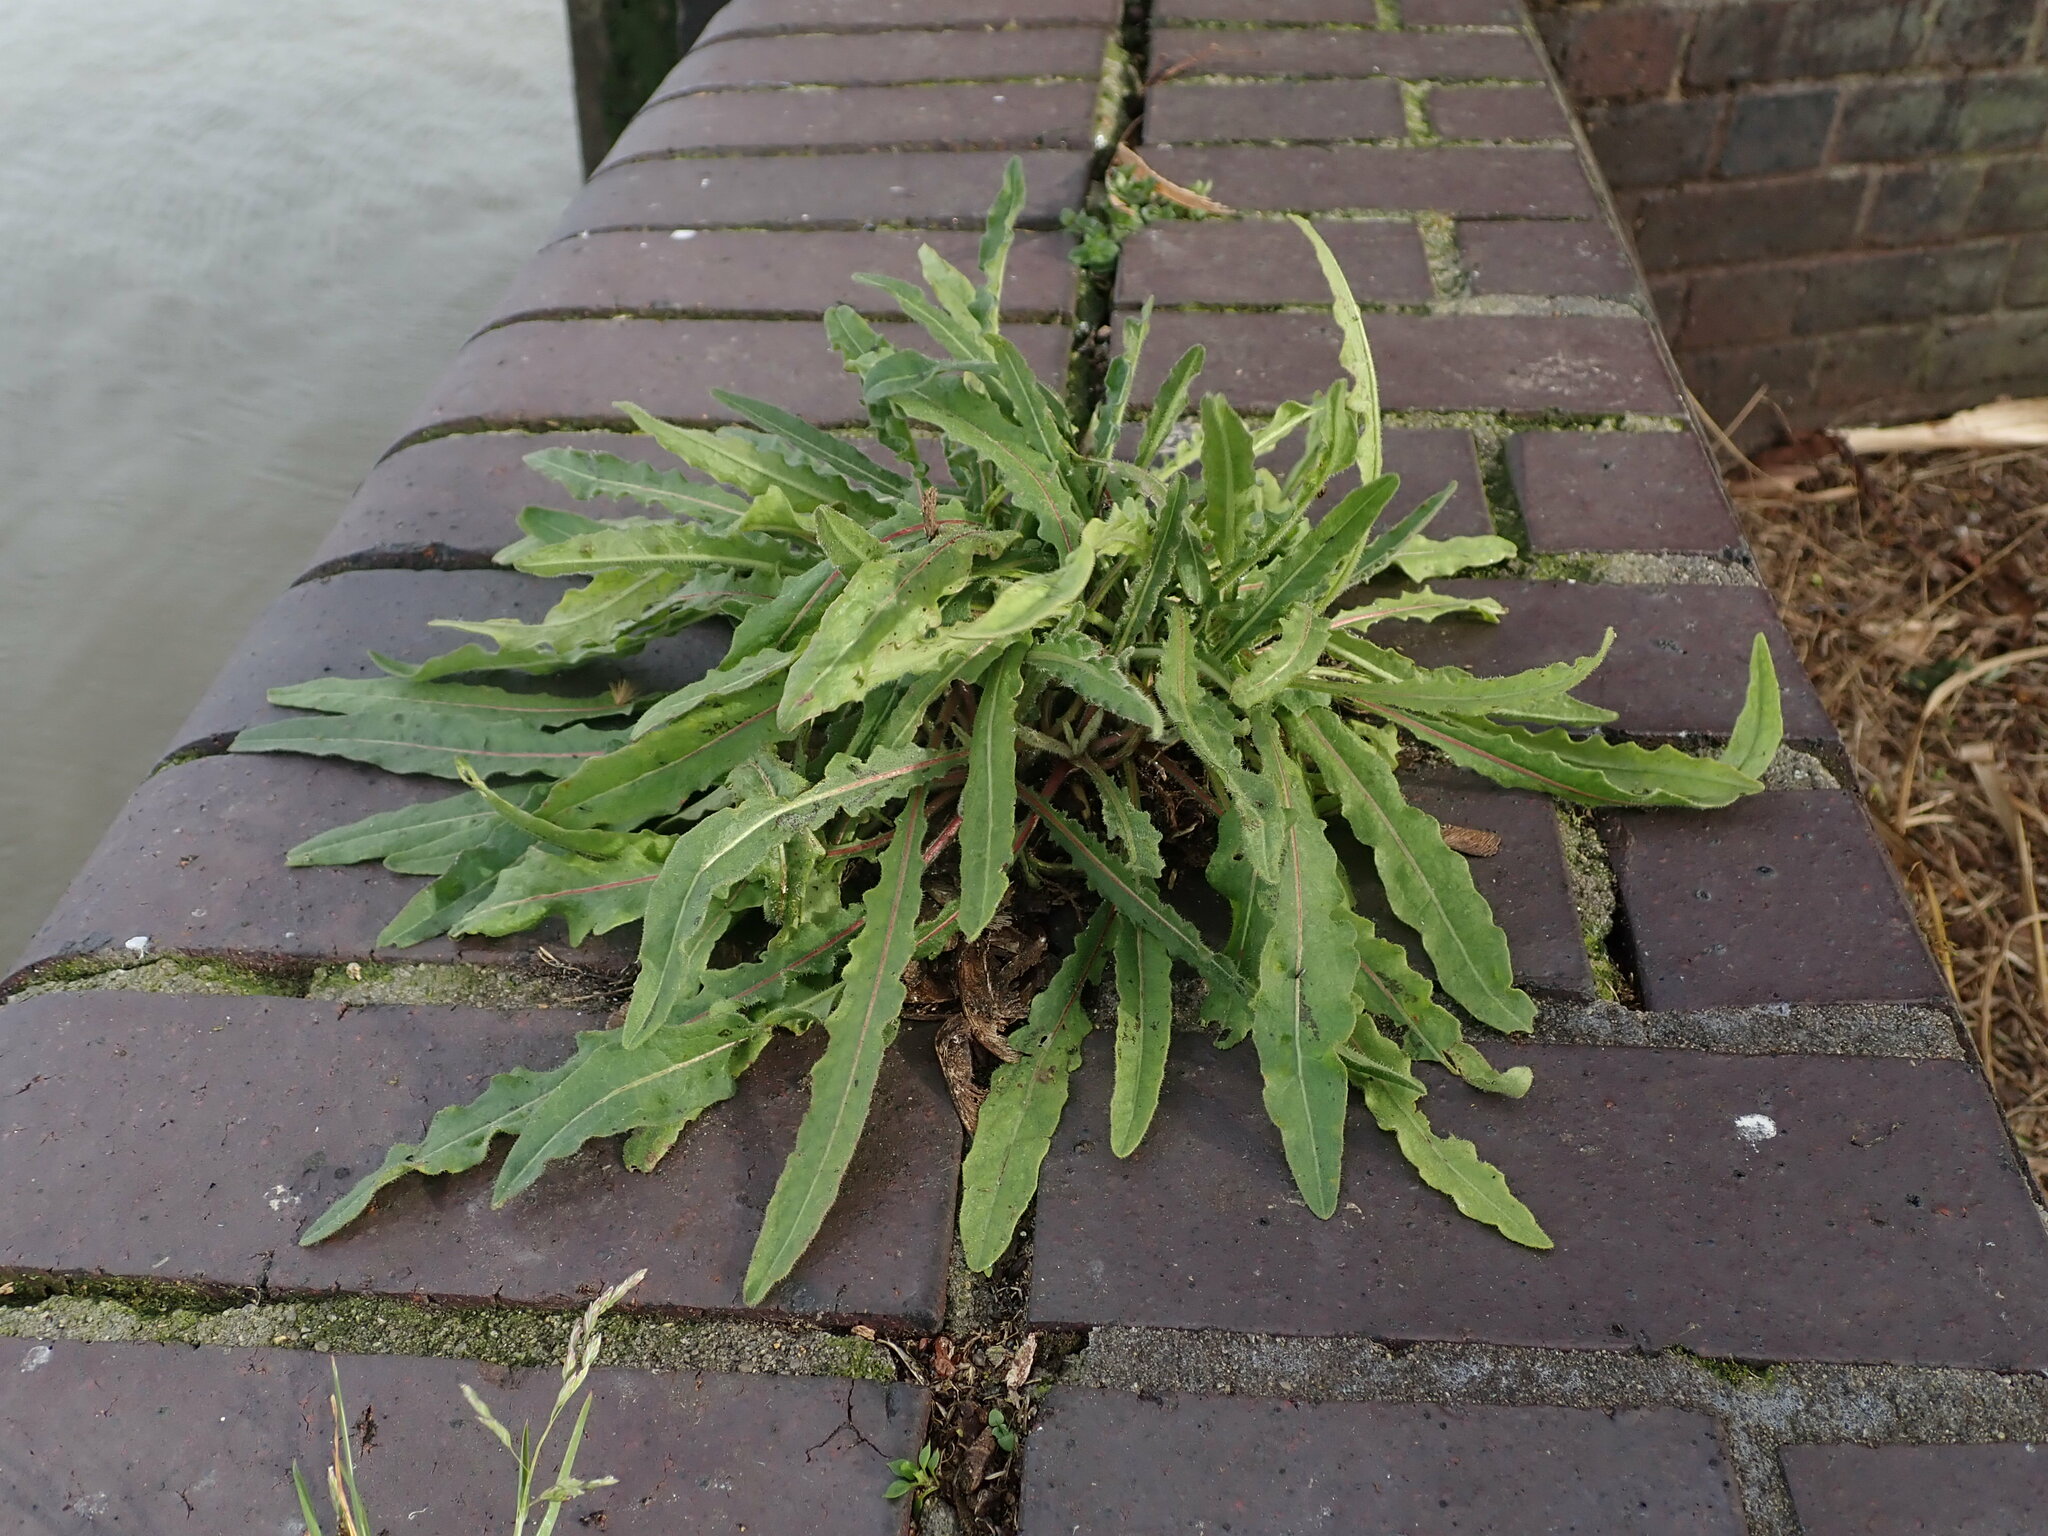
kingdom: Plantae
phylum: Tracheophyta
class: Magnoliopsida
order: Asterales
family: Asteraceae
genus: Picris
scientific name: Picris hieracioides
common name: Hawkweed oxtongue
